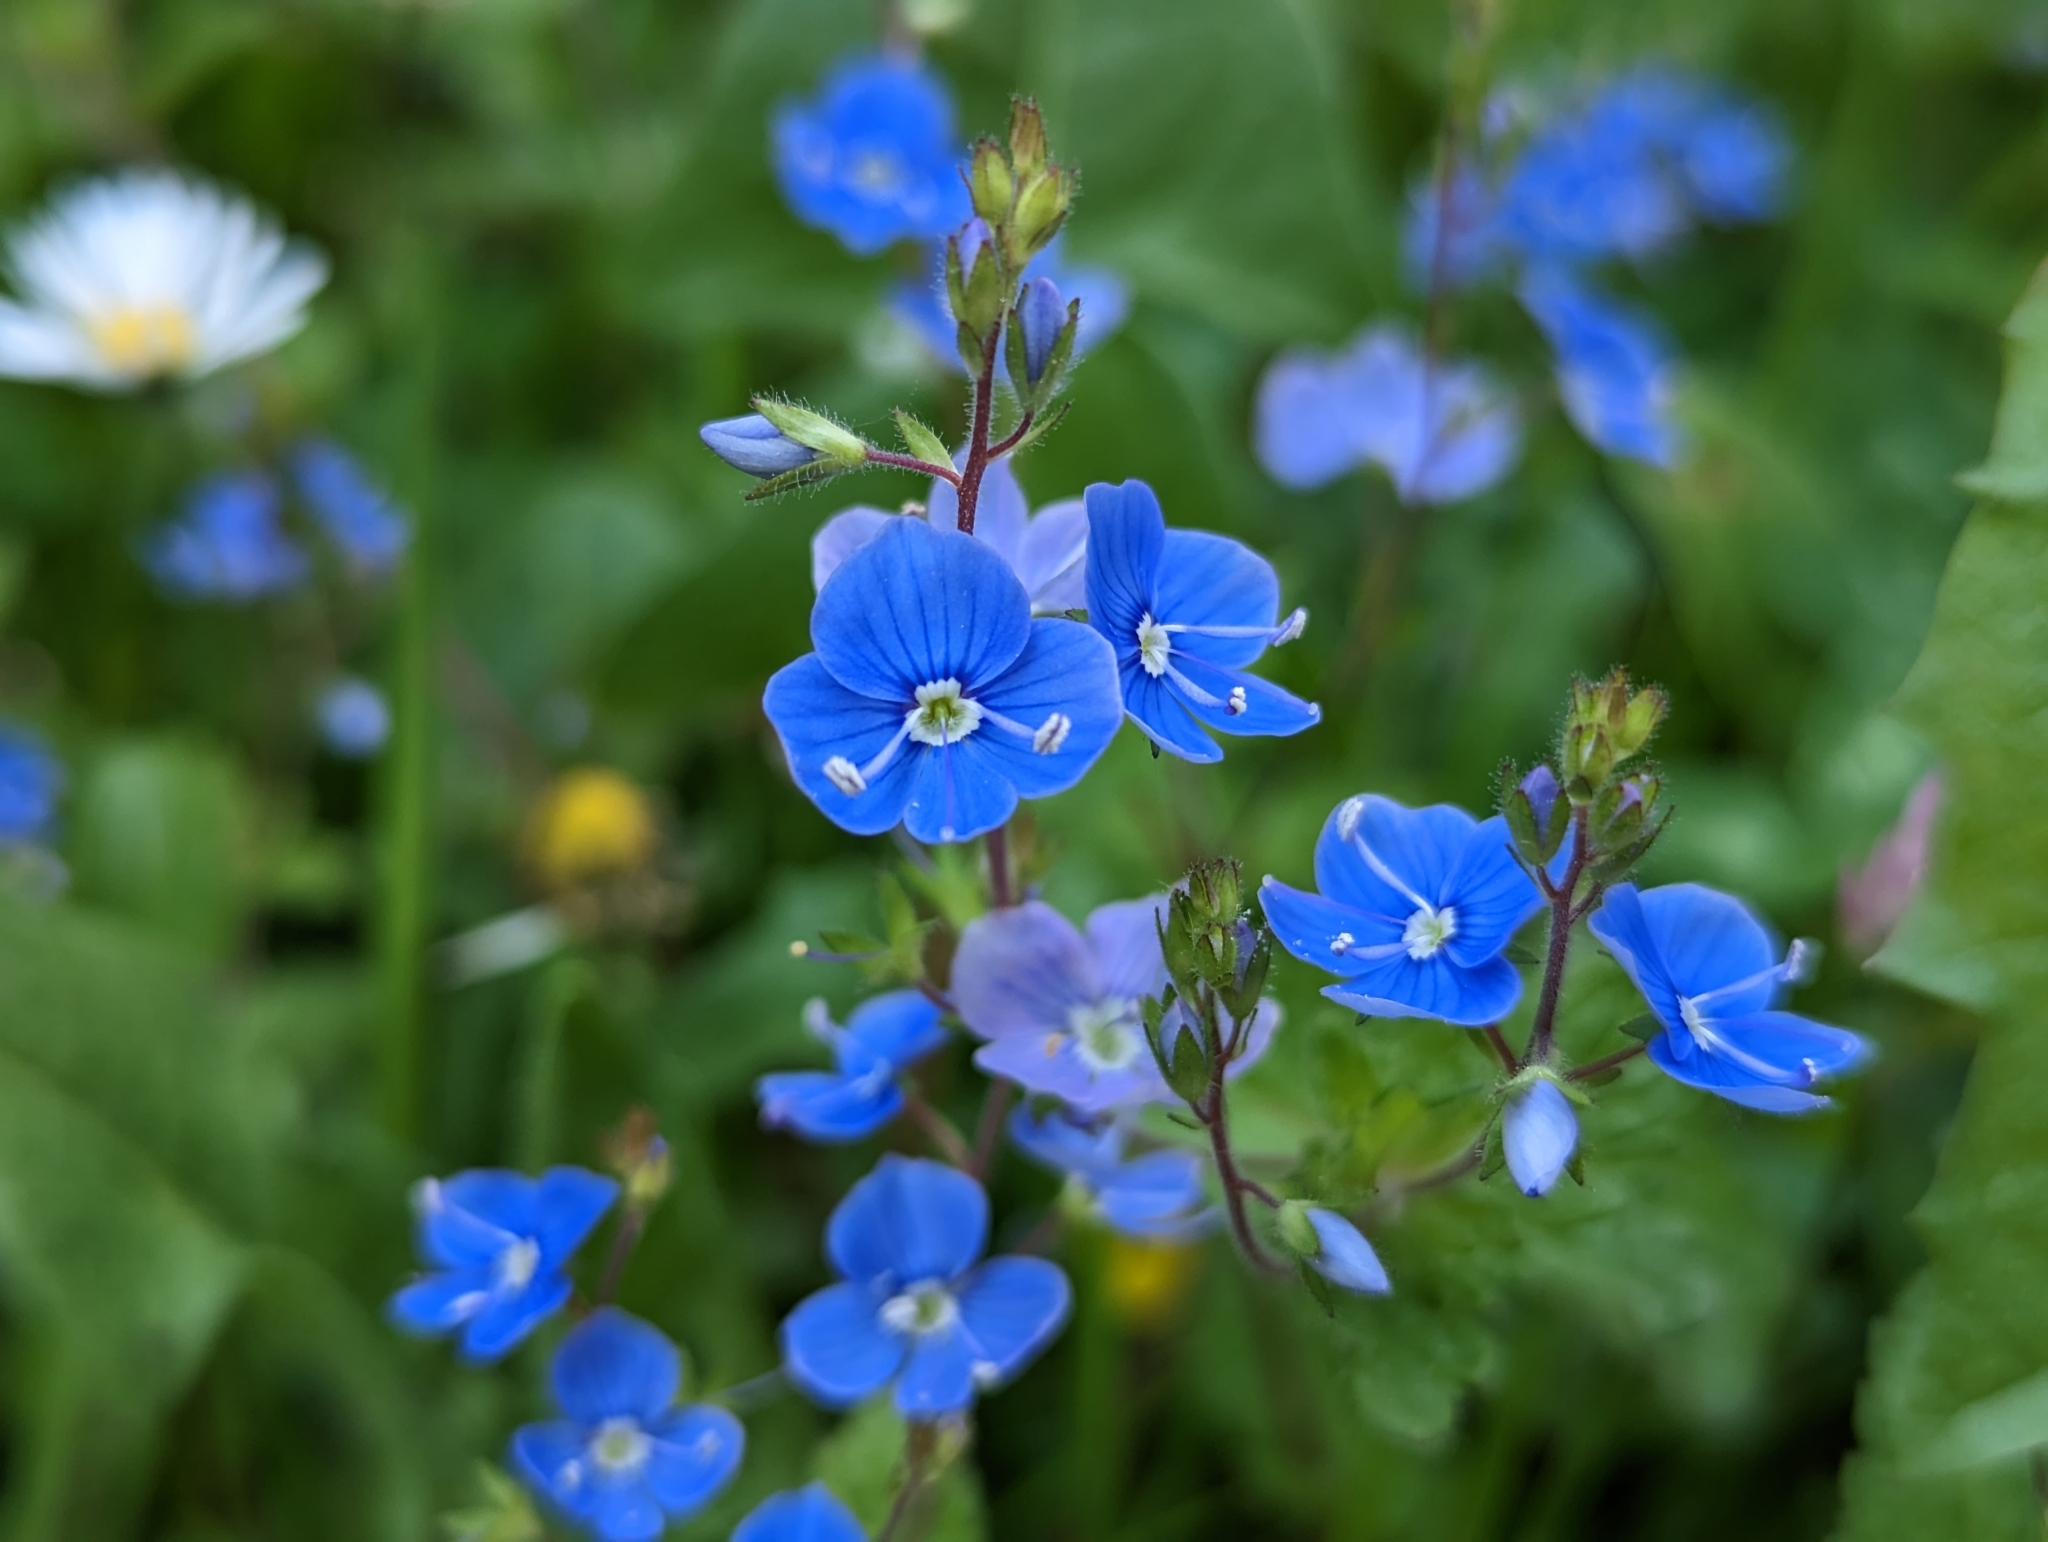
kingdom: Plantae
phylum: Tracheophyta
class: Magnoliopsida
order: Lamiales
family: Plantaginaceae
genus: Veronica
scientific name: Veronica chamaedrys
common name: Germander speedwell
